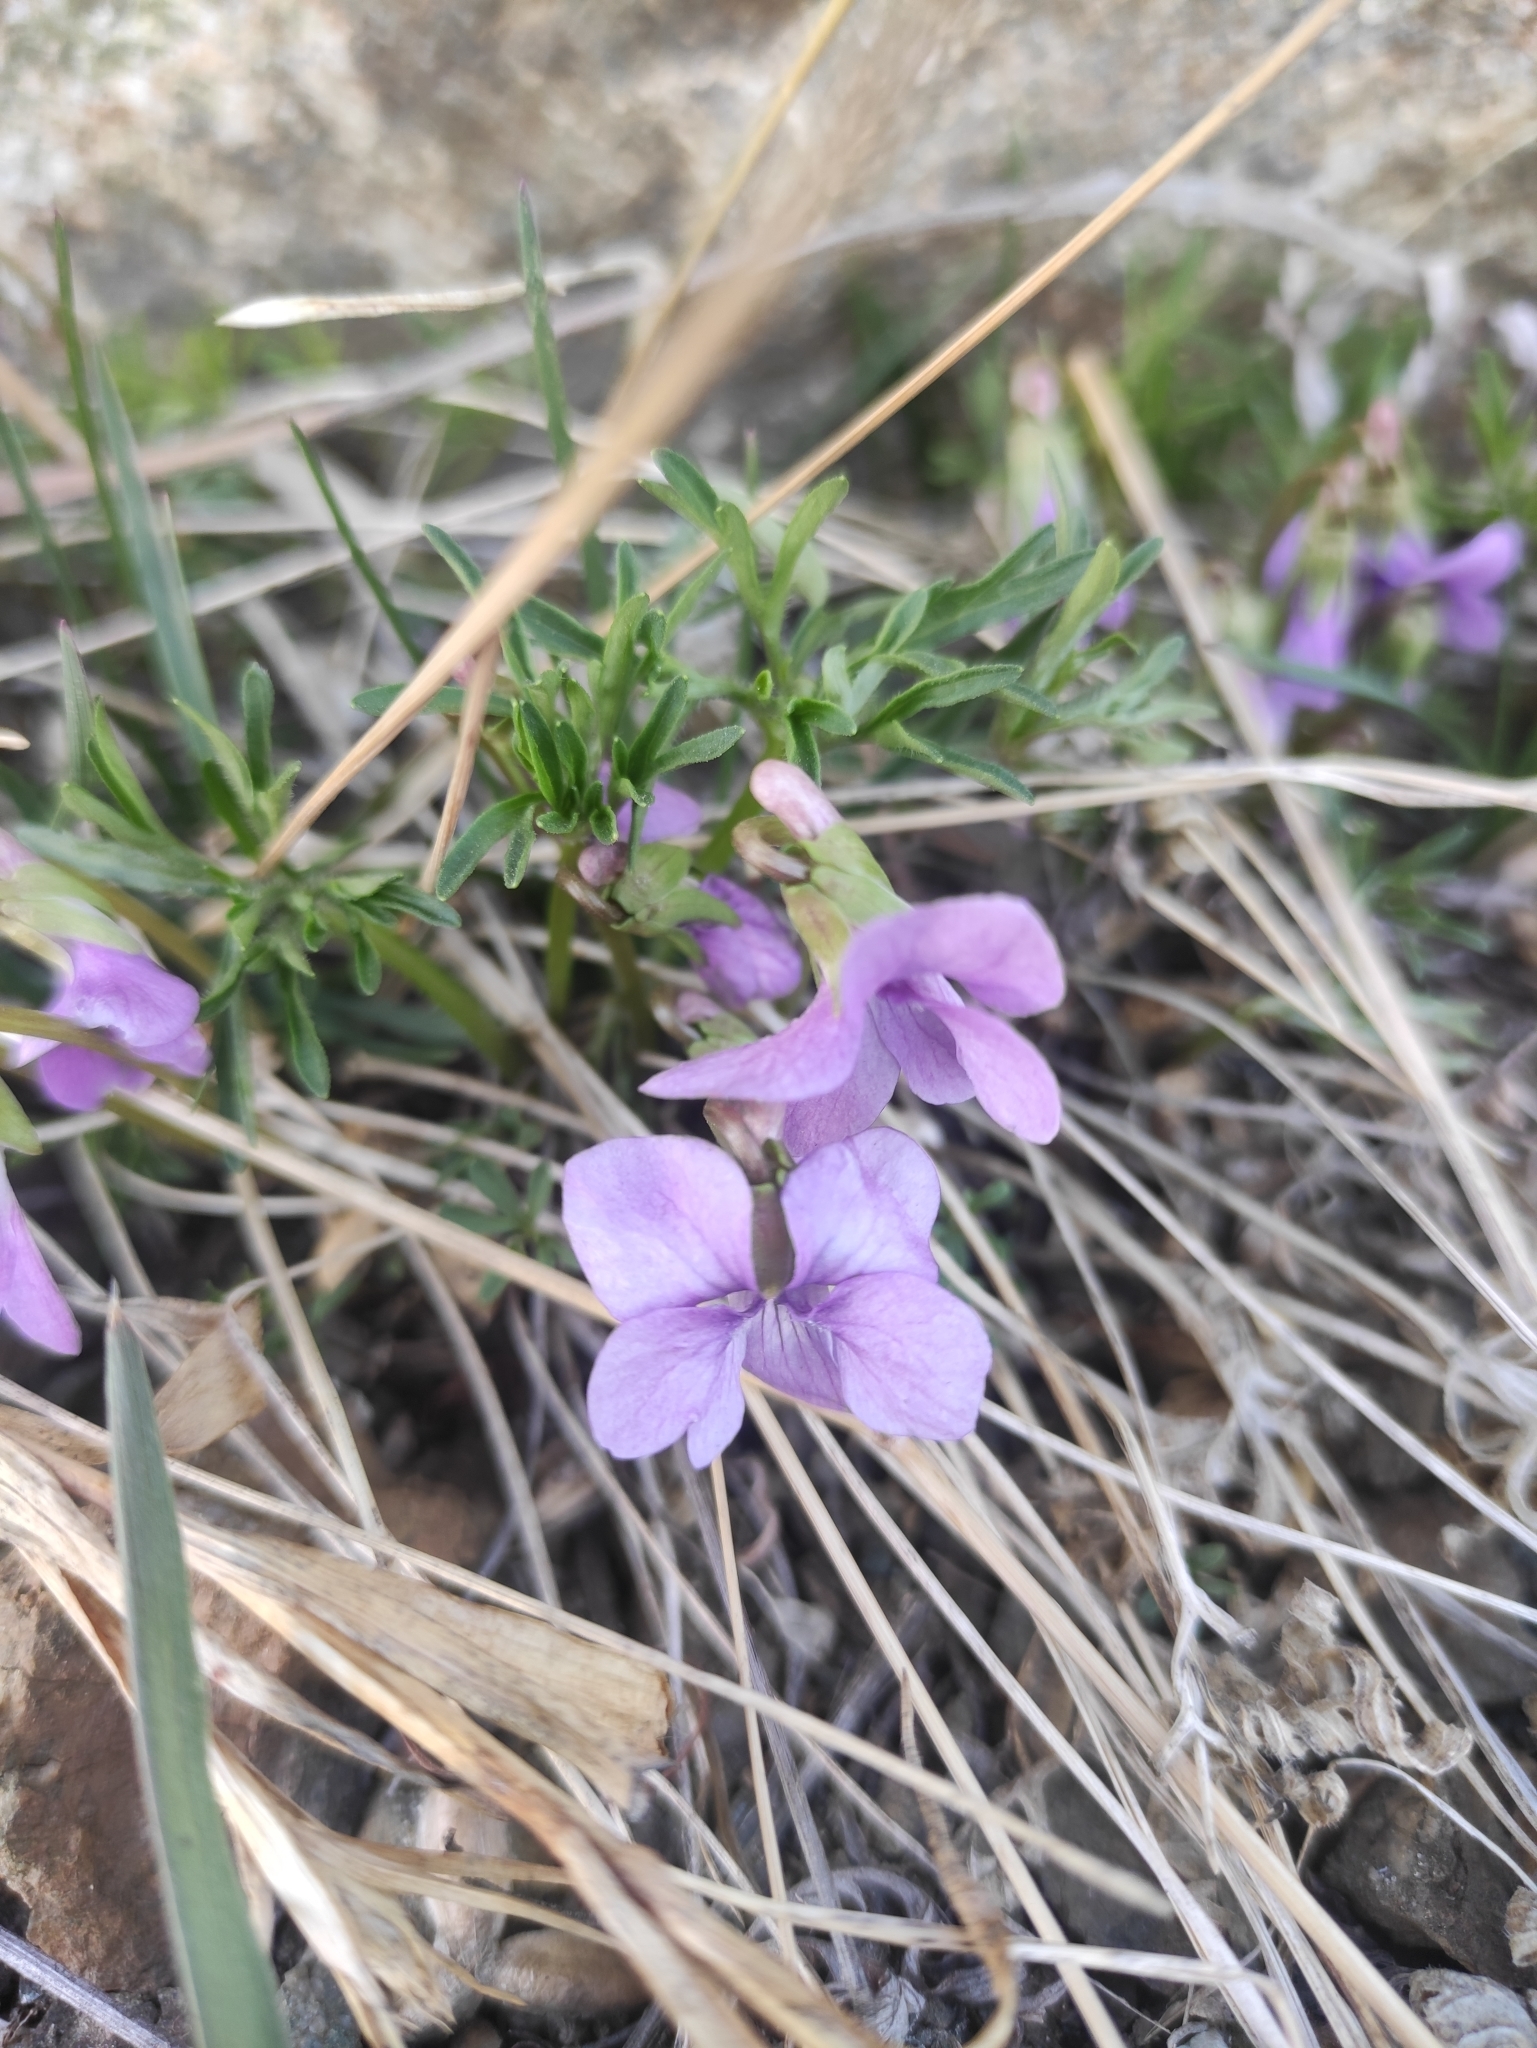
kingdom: Plantae
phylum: Tracheophyta
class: Magnoliopsida
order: Malpighiales
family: Violaceae
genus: Viola
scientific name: Viola multifida
